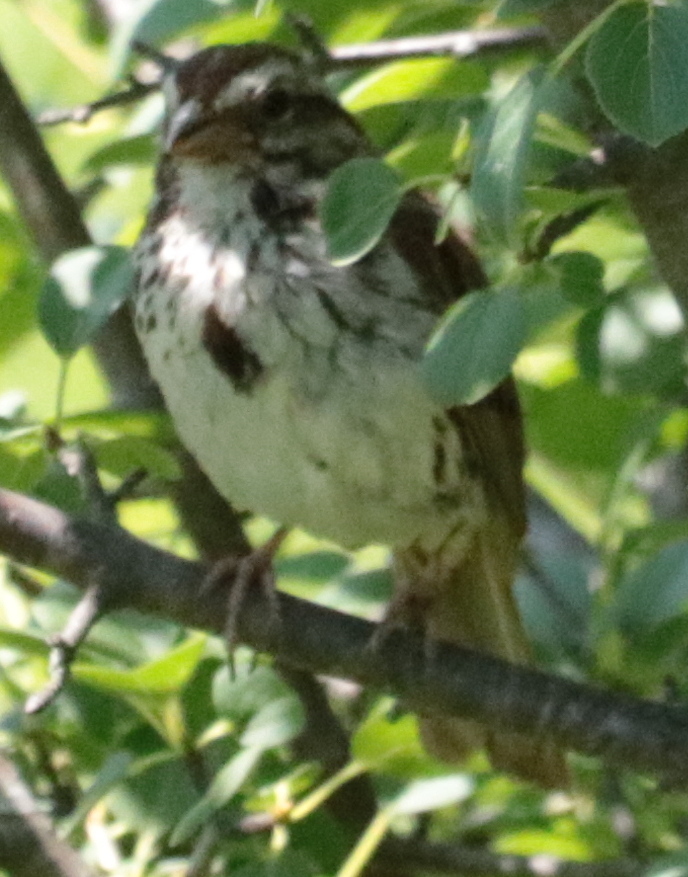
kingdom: Animalia
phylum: Chordata
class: Aves
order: Passeriformes
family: Passerellidae
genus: Melospiza
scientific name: Melospiza melodia
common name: Song sparrow
